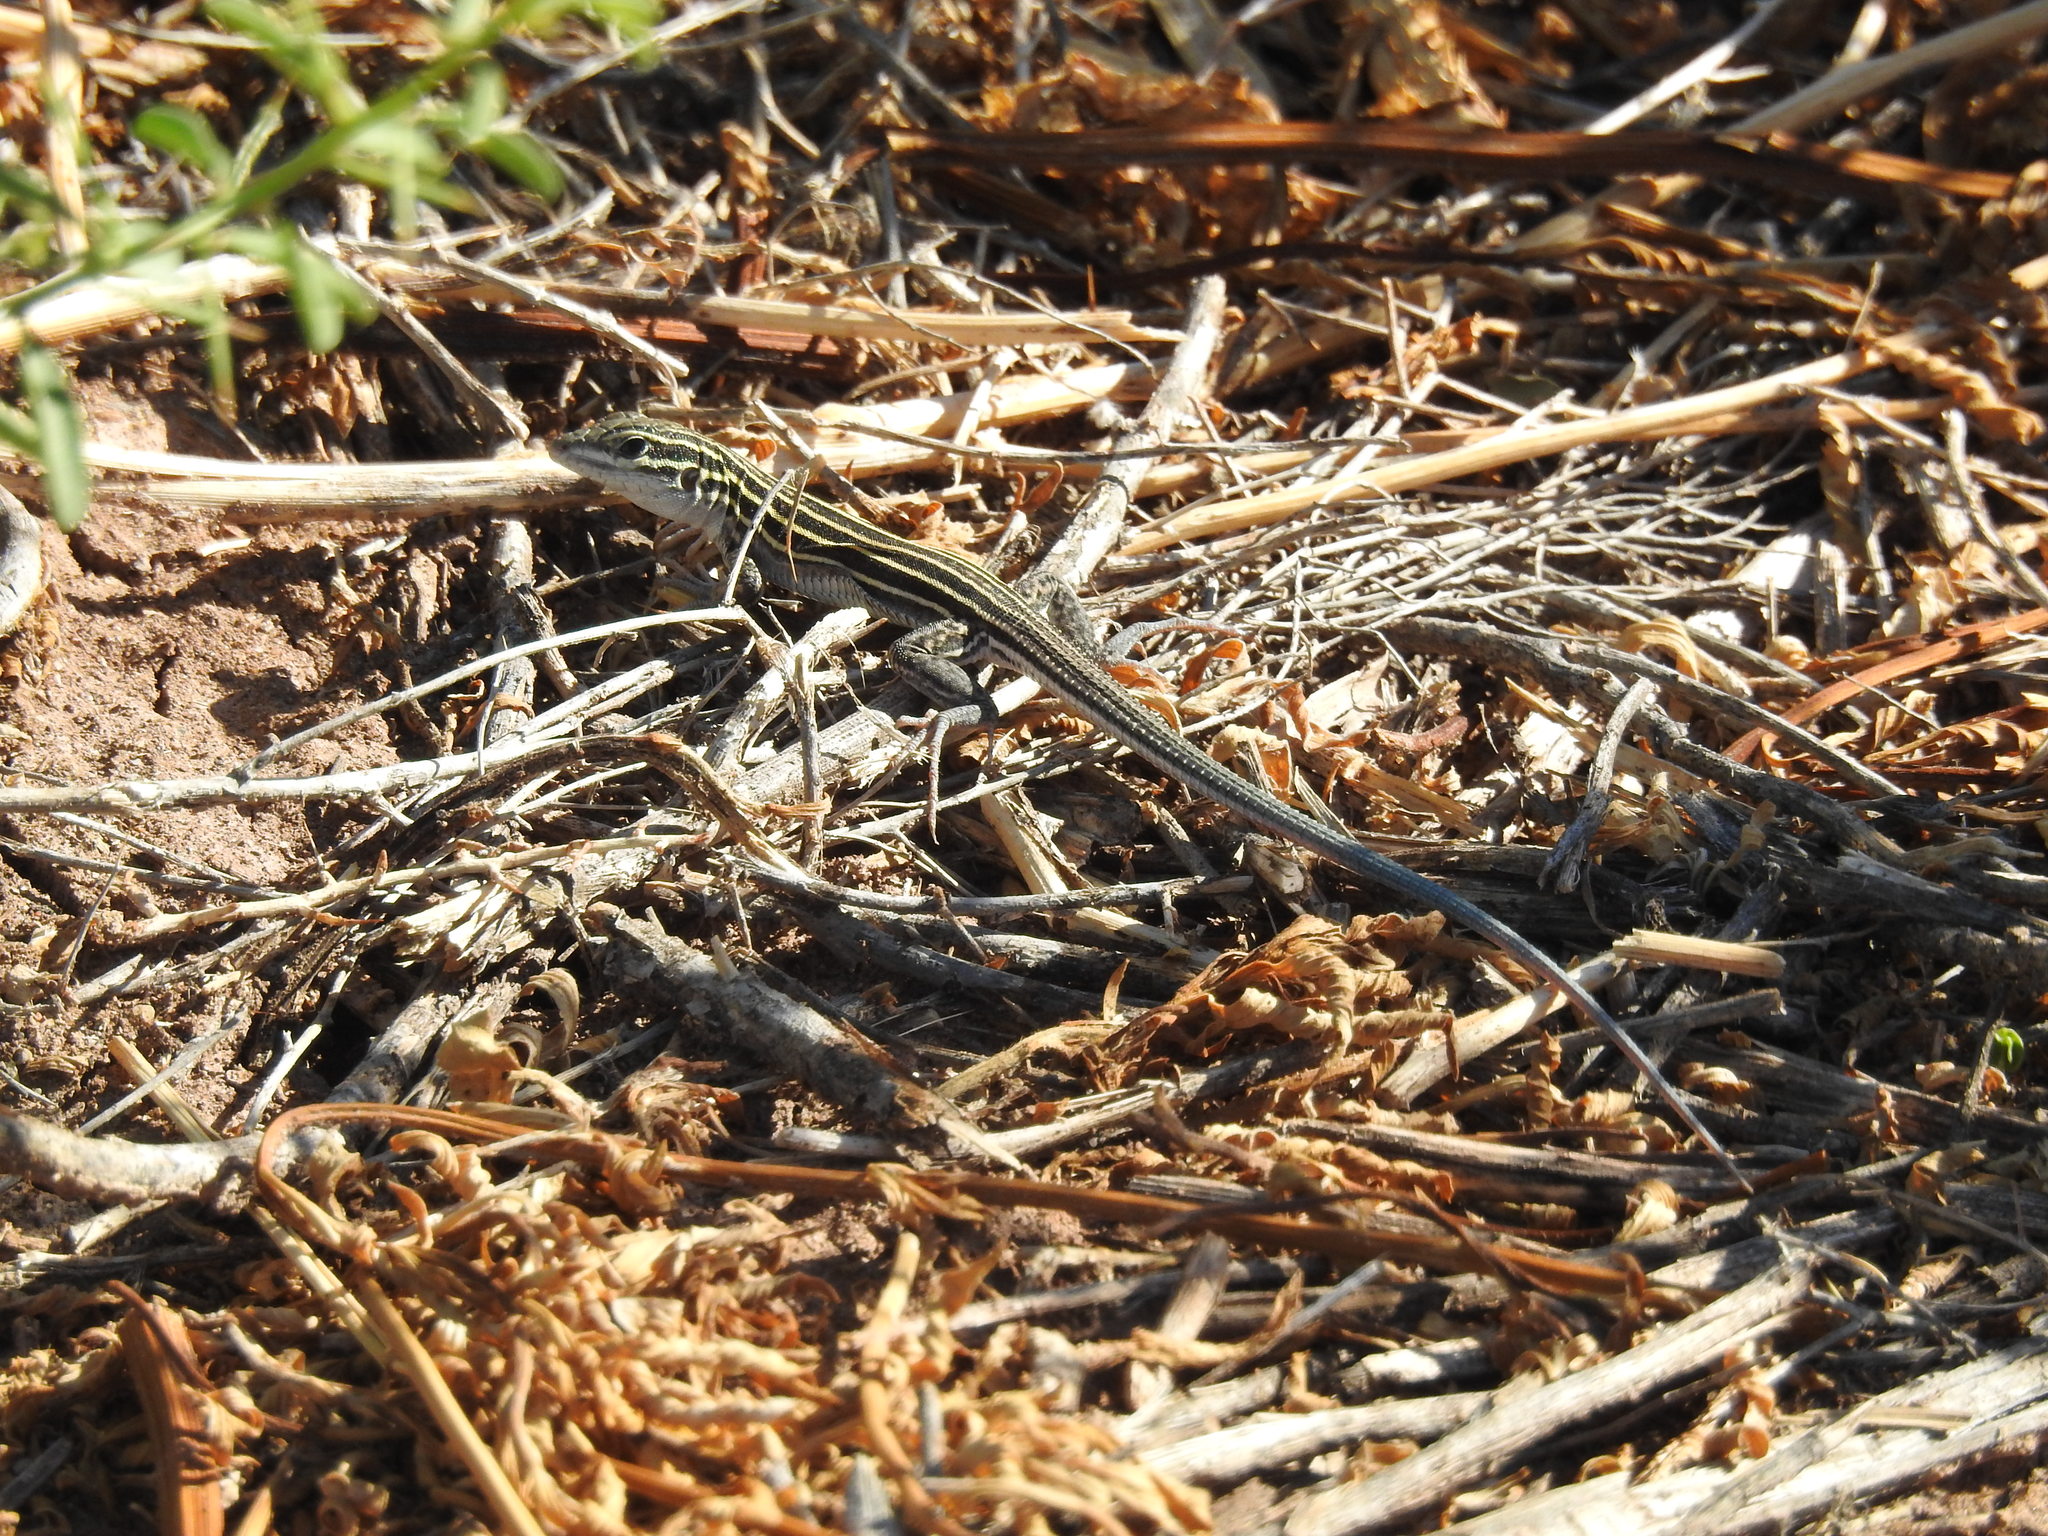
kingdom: Animalia
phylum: Chordata
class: Squamata
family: Teiidae
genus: Aspidoscelis
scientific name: Aspidoscelis velox
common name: Plateau striped whiptail
